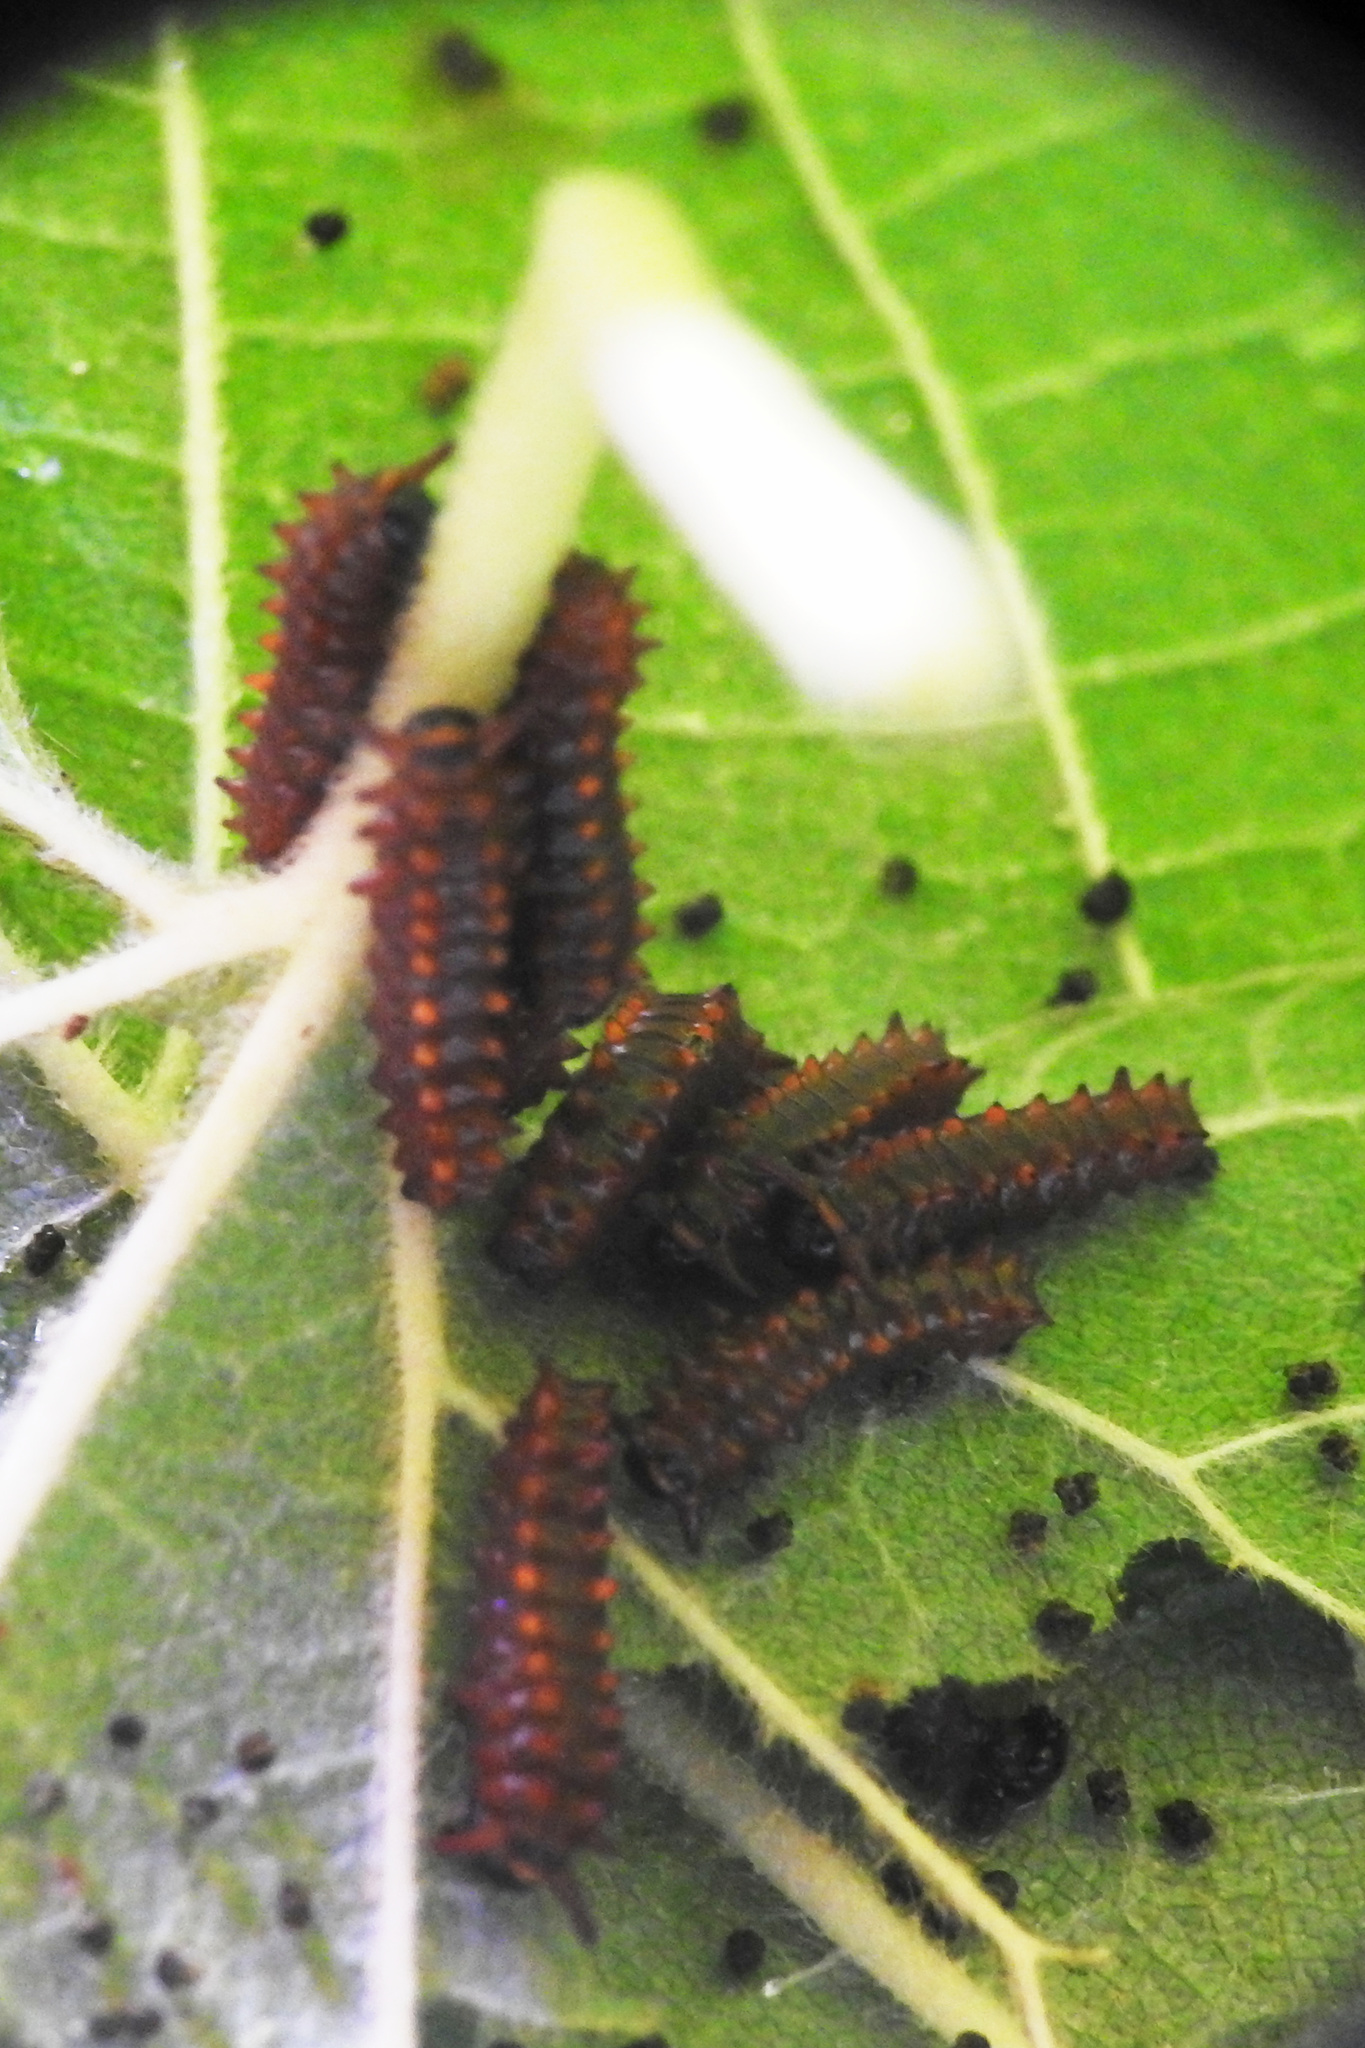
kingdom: Animalia
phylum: Arthropoda
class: Insecta
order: Lepidoptera
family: Papilionidae
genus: Battus
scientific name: Battus philenor
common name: Pipevine swallowtail
